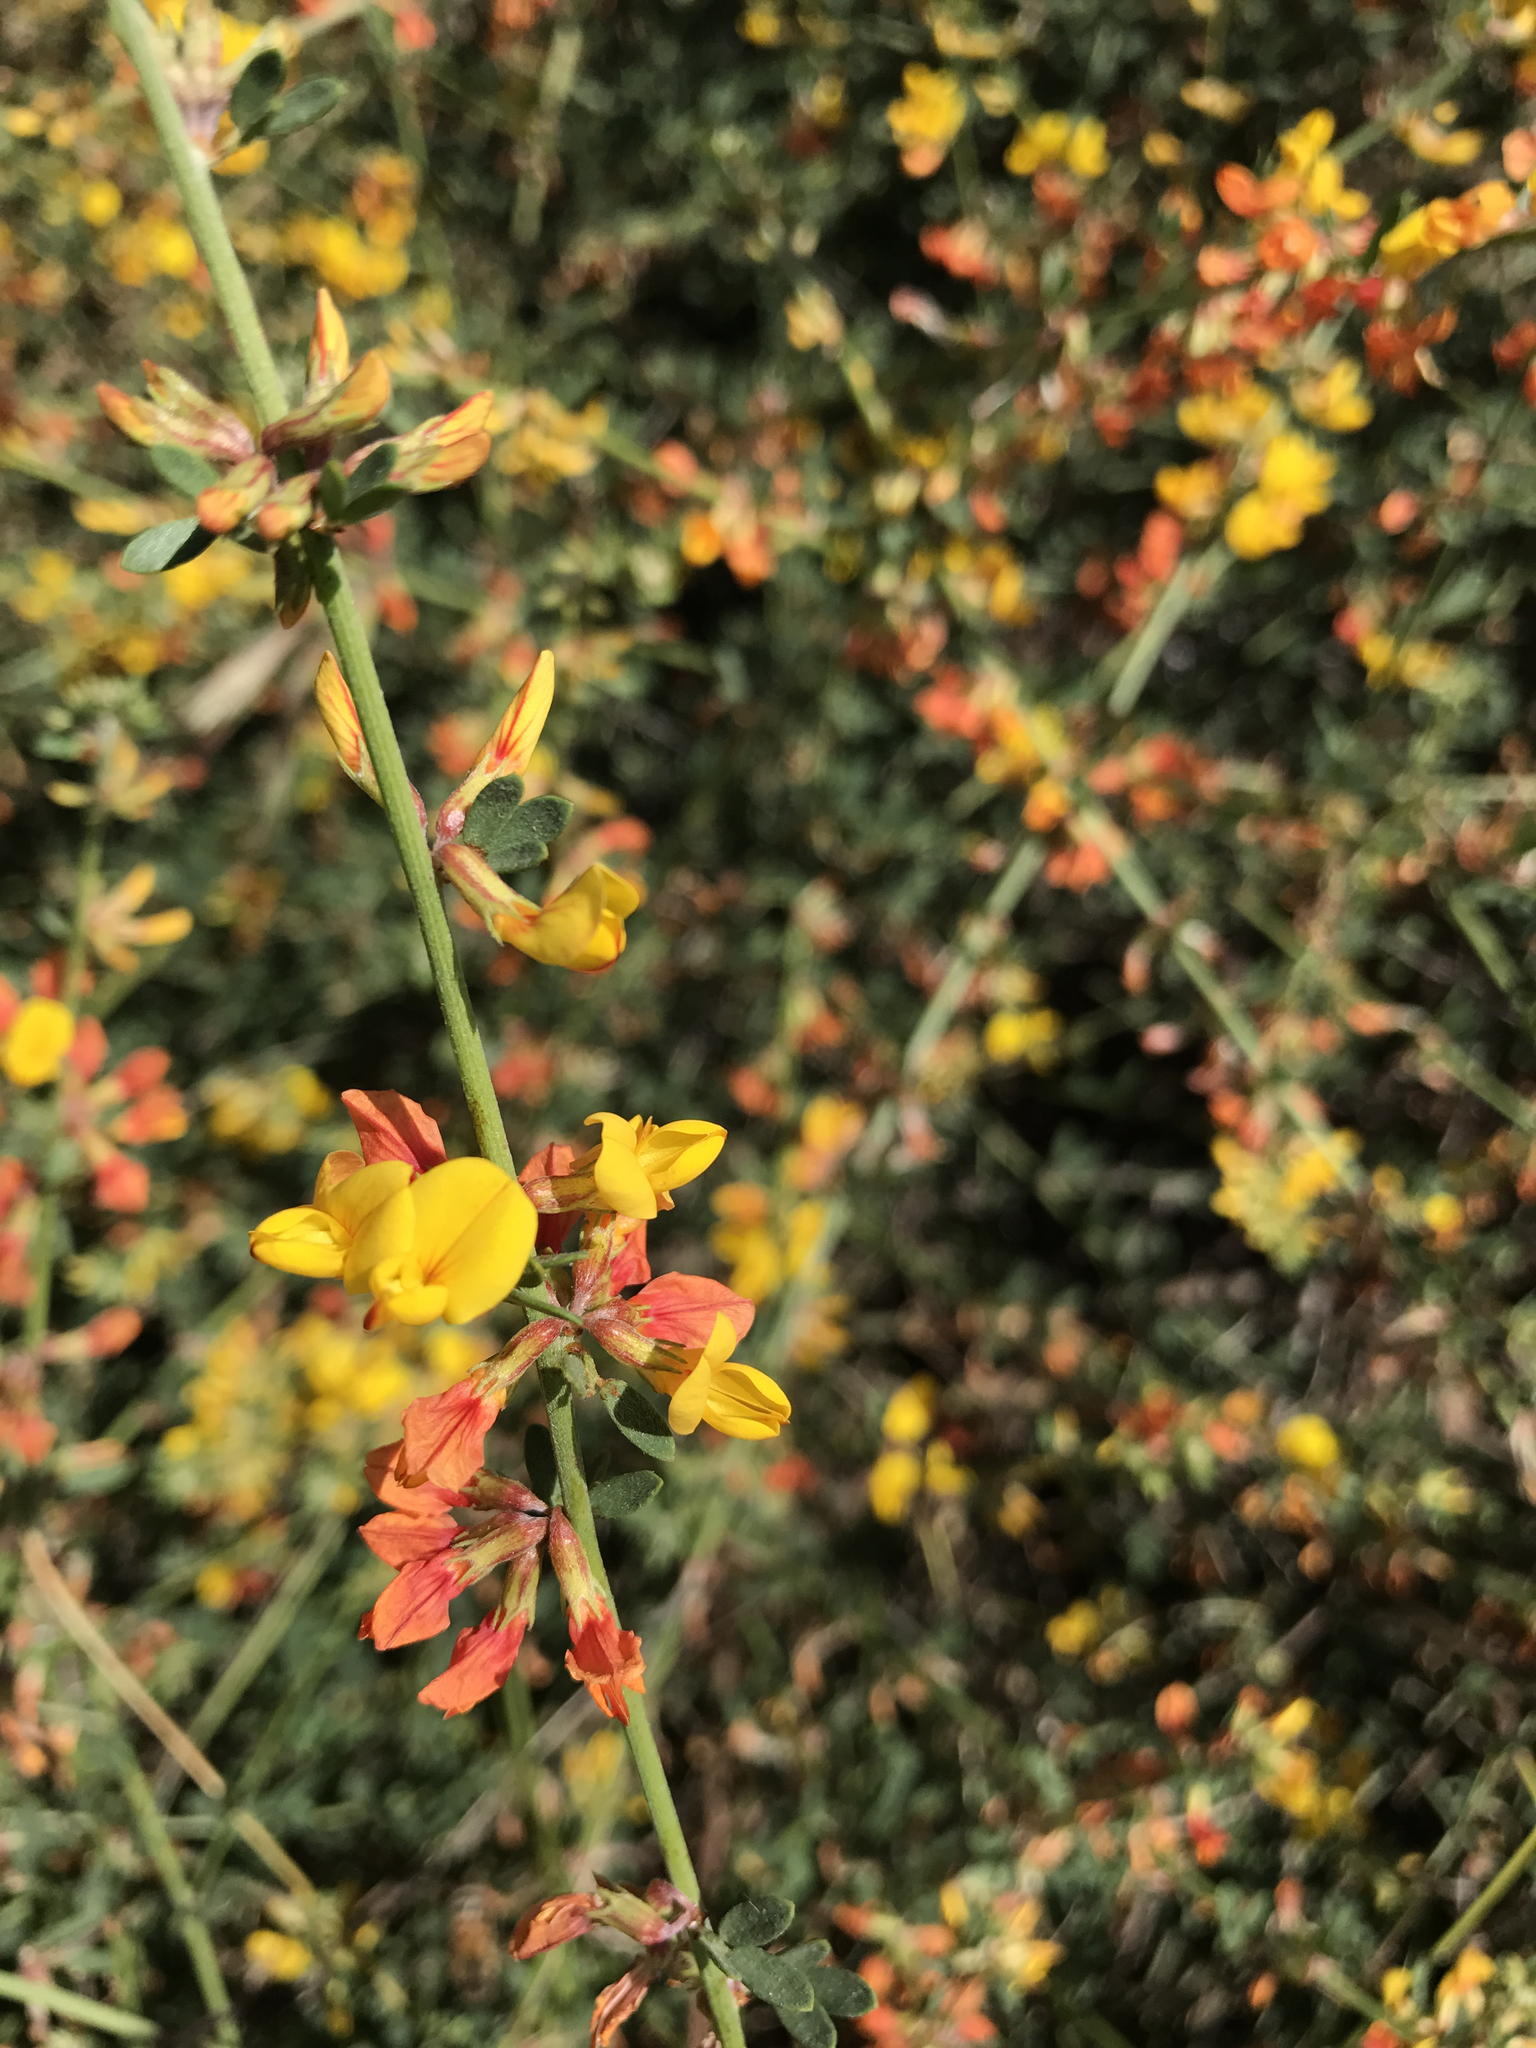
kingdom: Plantae
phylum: Tracheophyta
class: Magnoliopsida
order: Fabales
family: Fabaceae
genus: Acmispon
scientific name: Acmispon glaber
